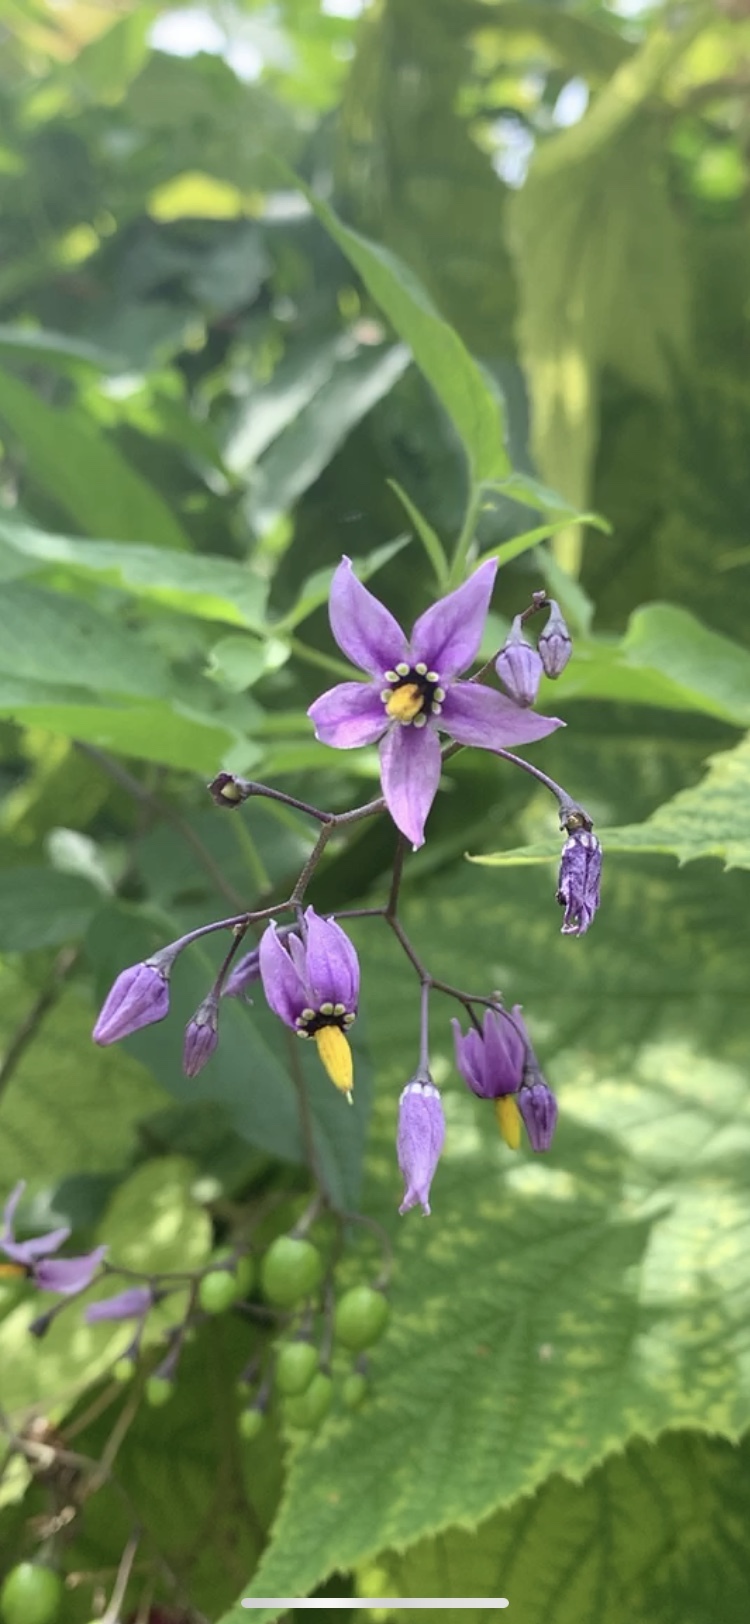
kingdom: Plantae
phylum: Tracheophyta
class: Magnoliopsida
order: Solanales
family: Solanaceae
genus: Solanum
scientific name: Solanum dulcamara
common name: Climbing nightshade
